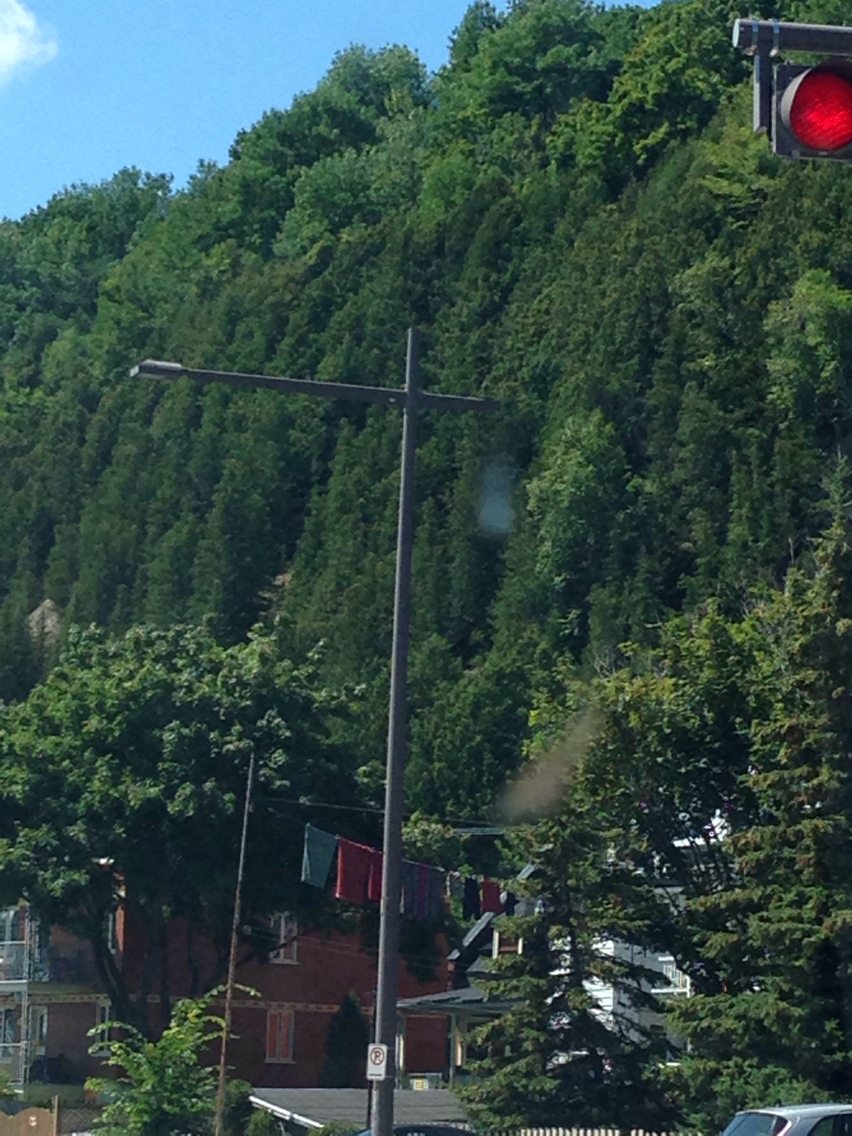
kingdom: Plantae
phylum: Tracheophyta
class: Pinopsida
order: Pinales
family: Cupressaceae
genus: Thuja
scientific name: Thuja occidentalis
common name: Northern white-cedar
